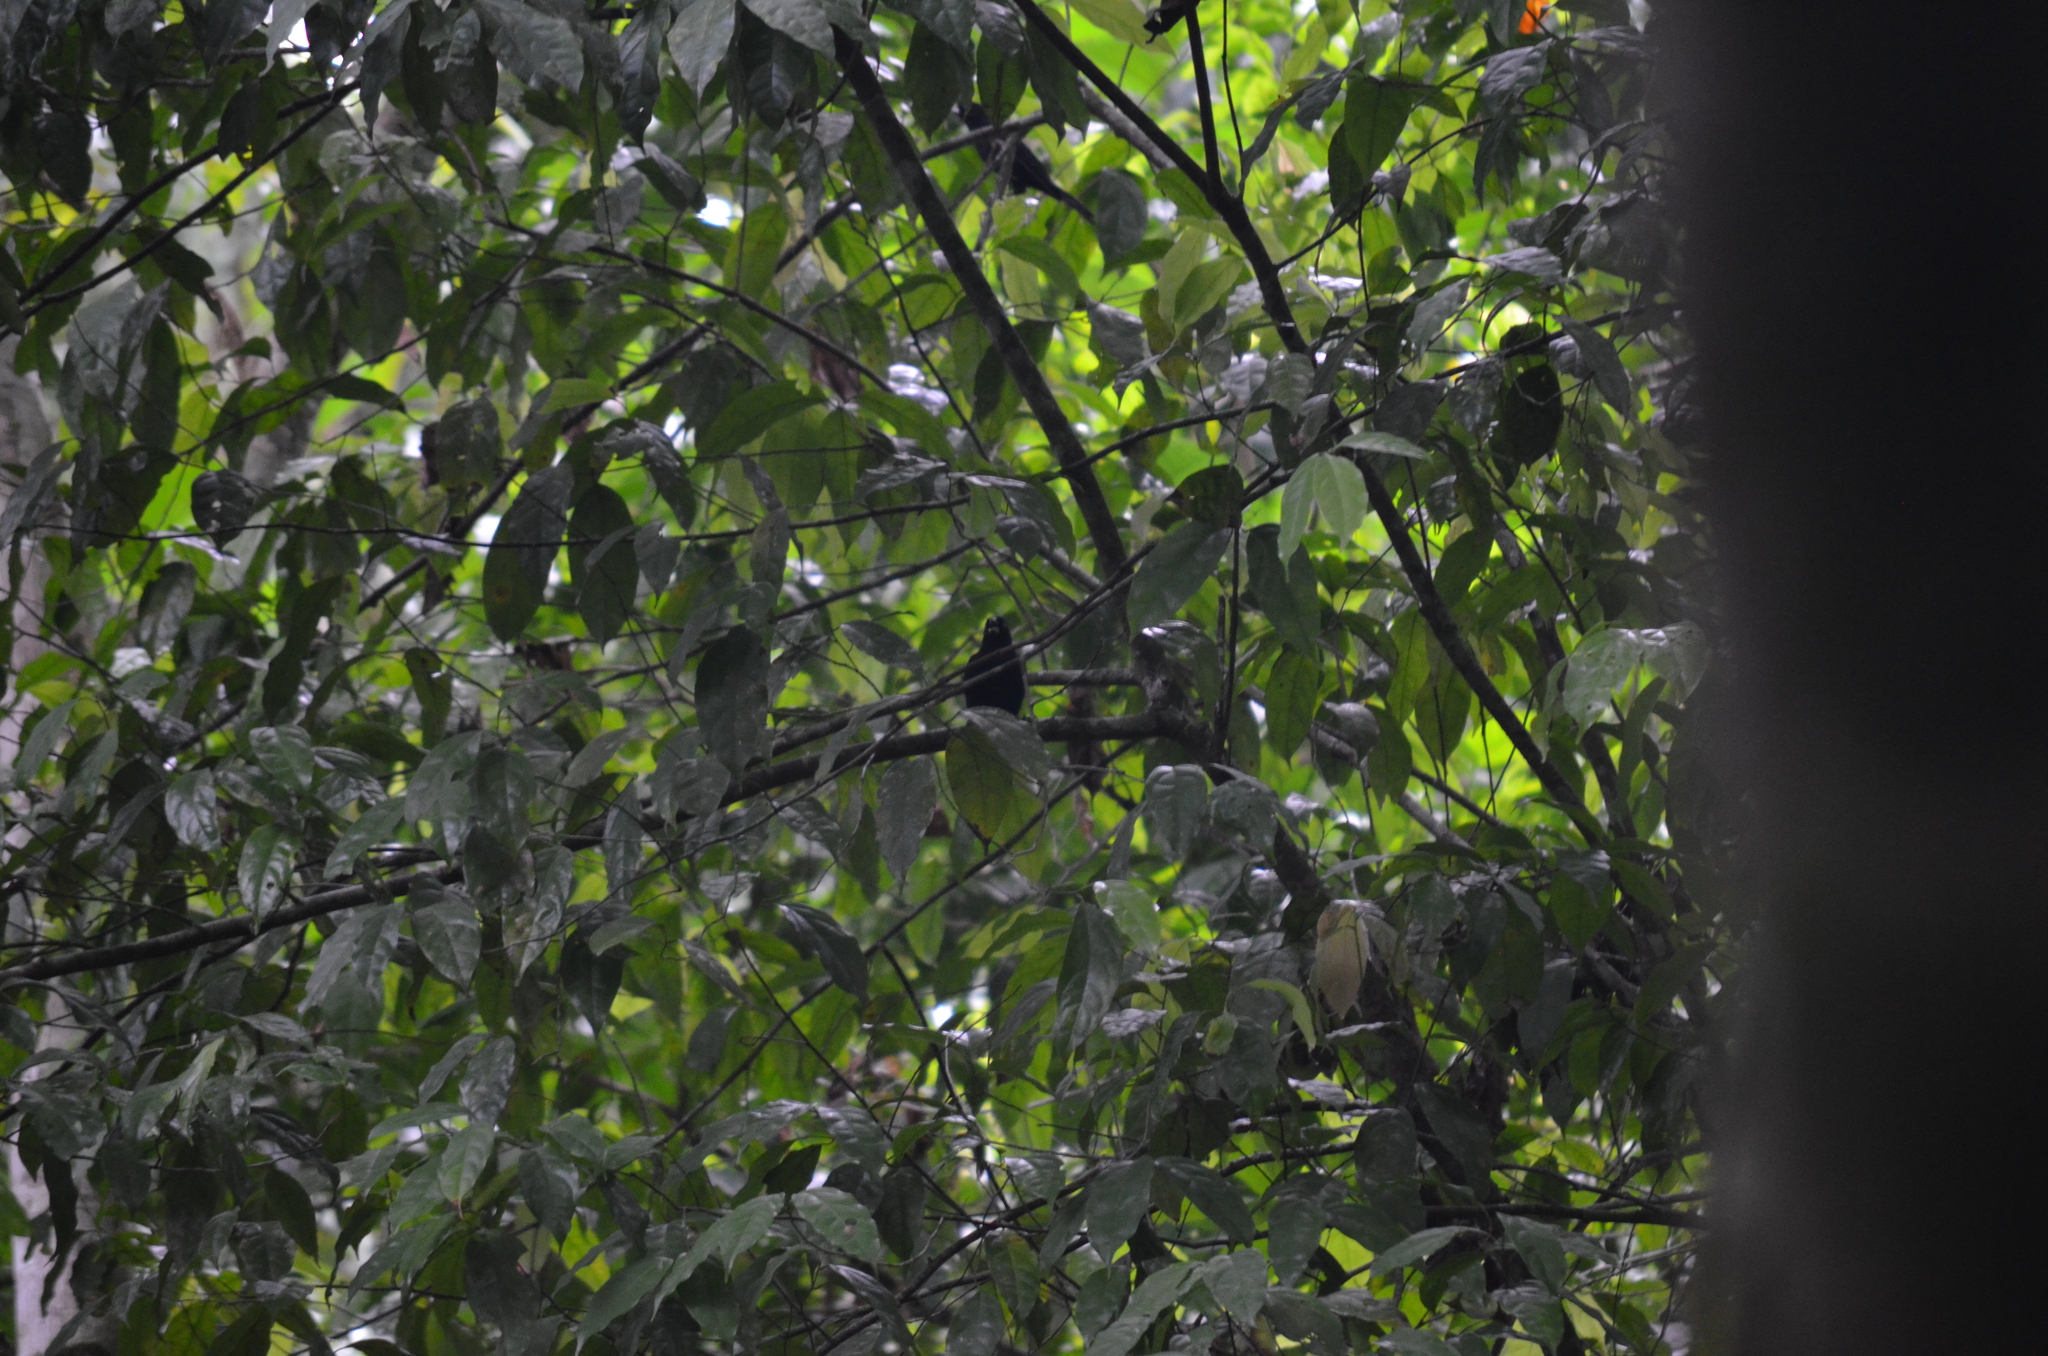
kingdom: Animalia
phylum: Chordata
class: Aves
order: Passeriformes
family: Icteridae
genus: Cacicus
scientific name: Cacicus uropygialis
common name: Scarlet-rumped cacique
